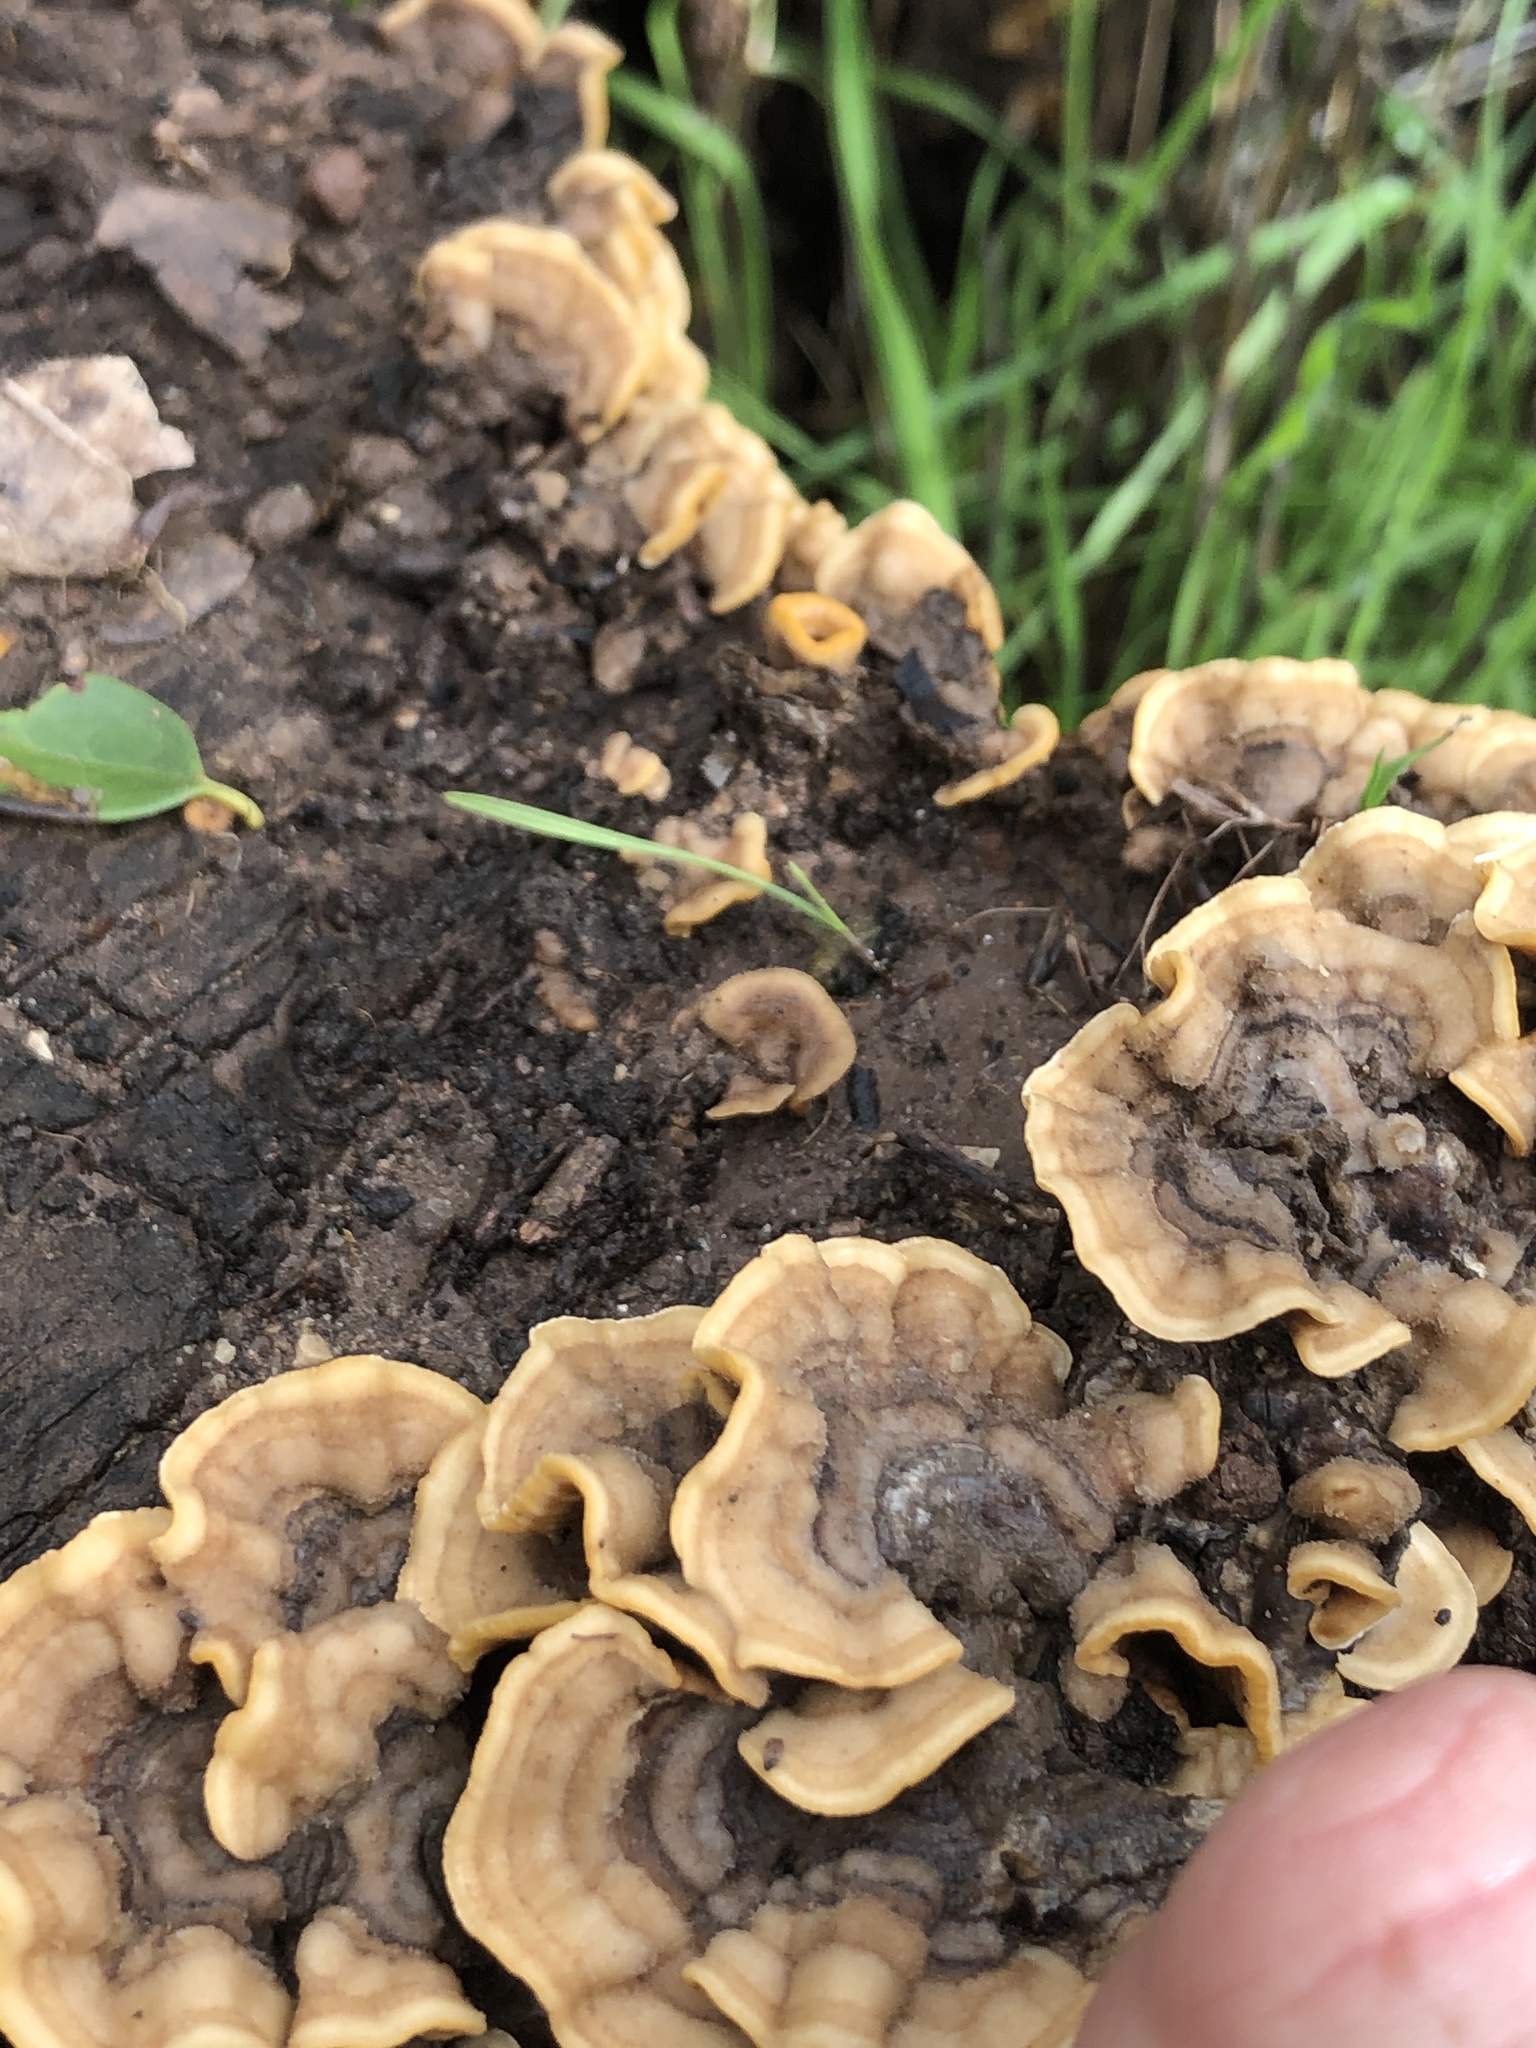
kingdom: Fungi
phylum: Basidiomycota
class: Agaricomycetes
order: Russulales
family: Stereaceae
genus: Stereum
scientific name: Stereum hirsutum
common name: Hairy curtain crust
